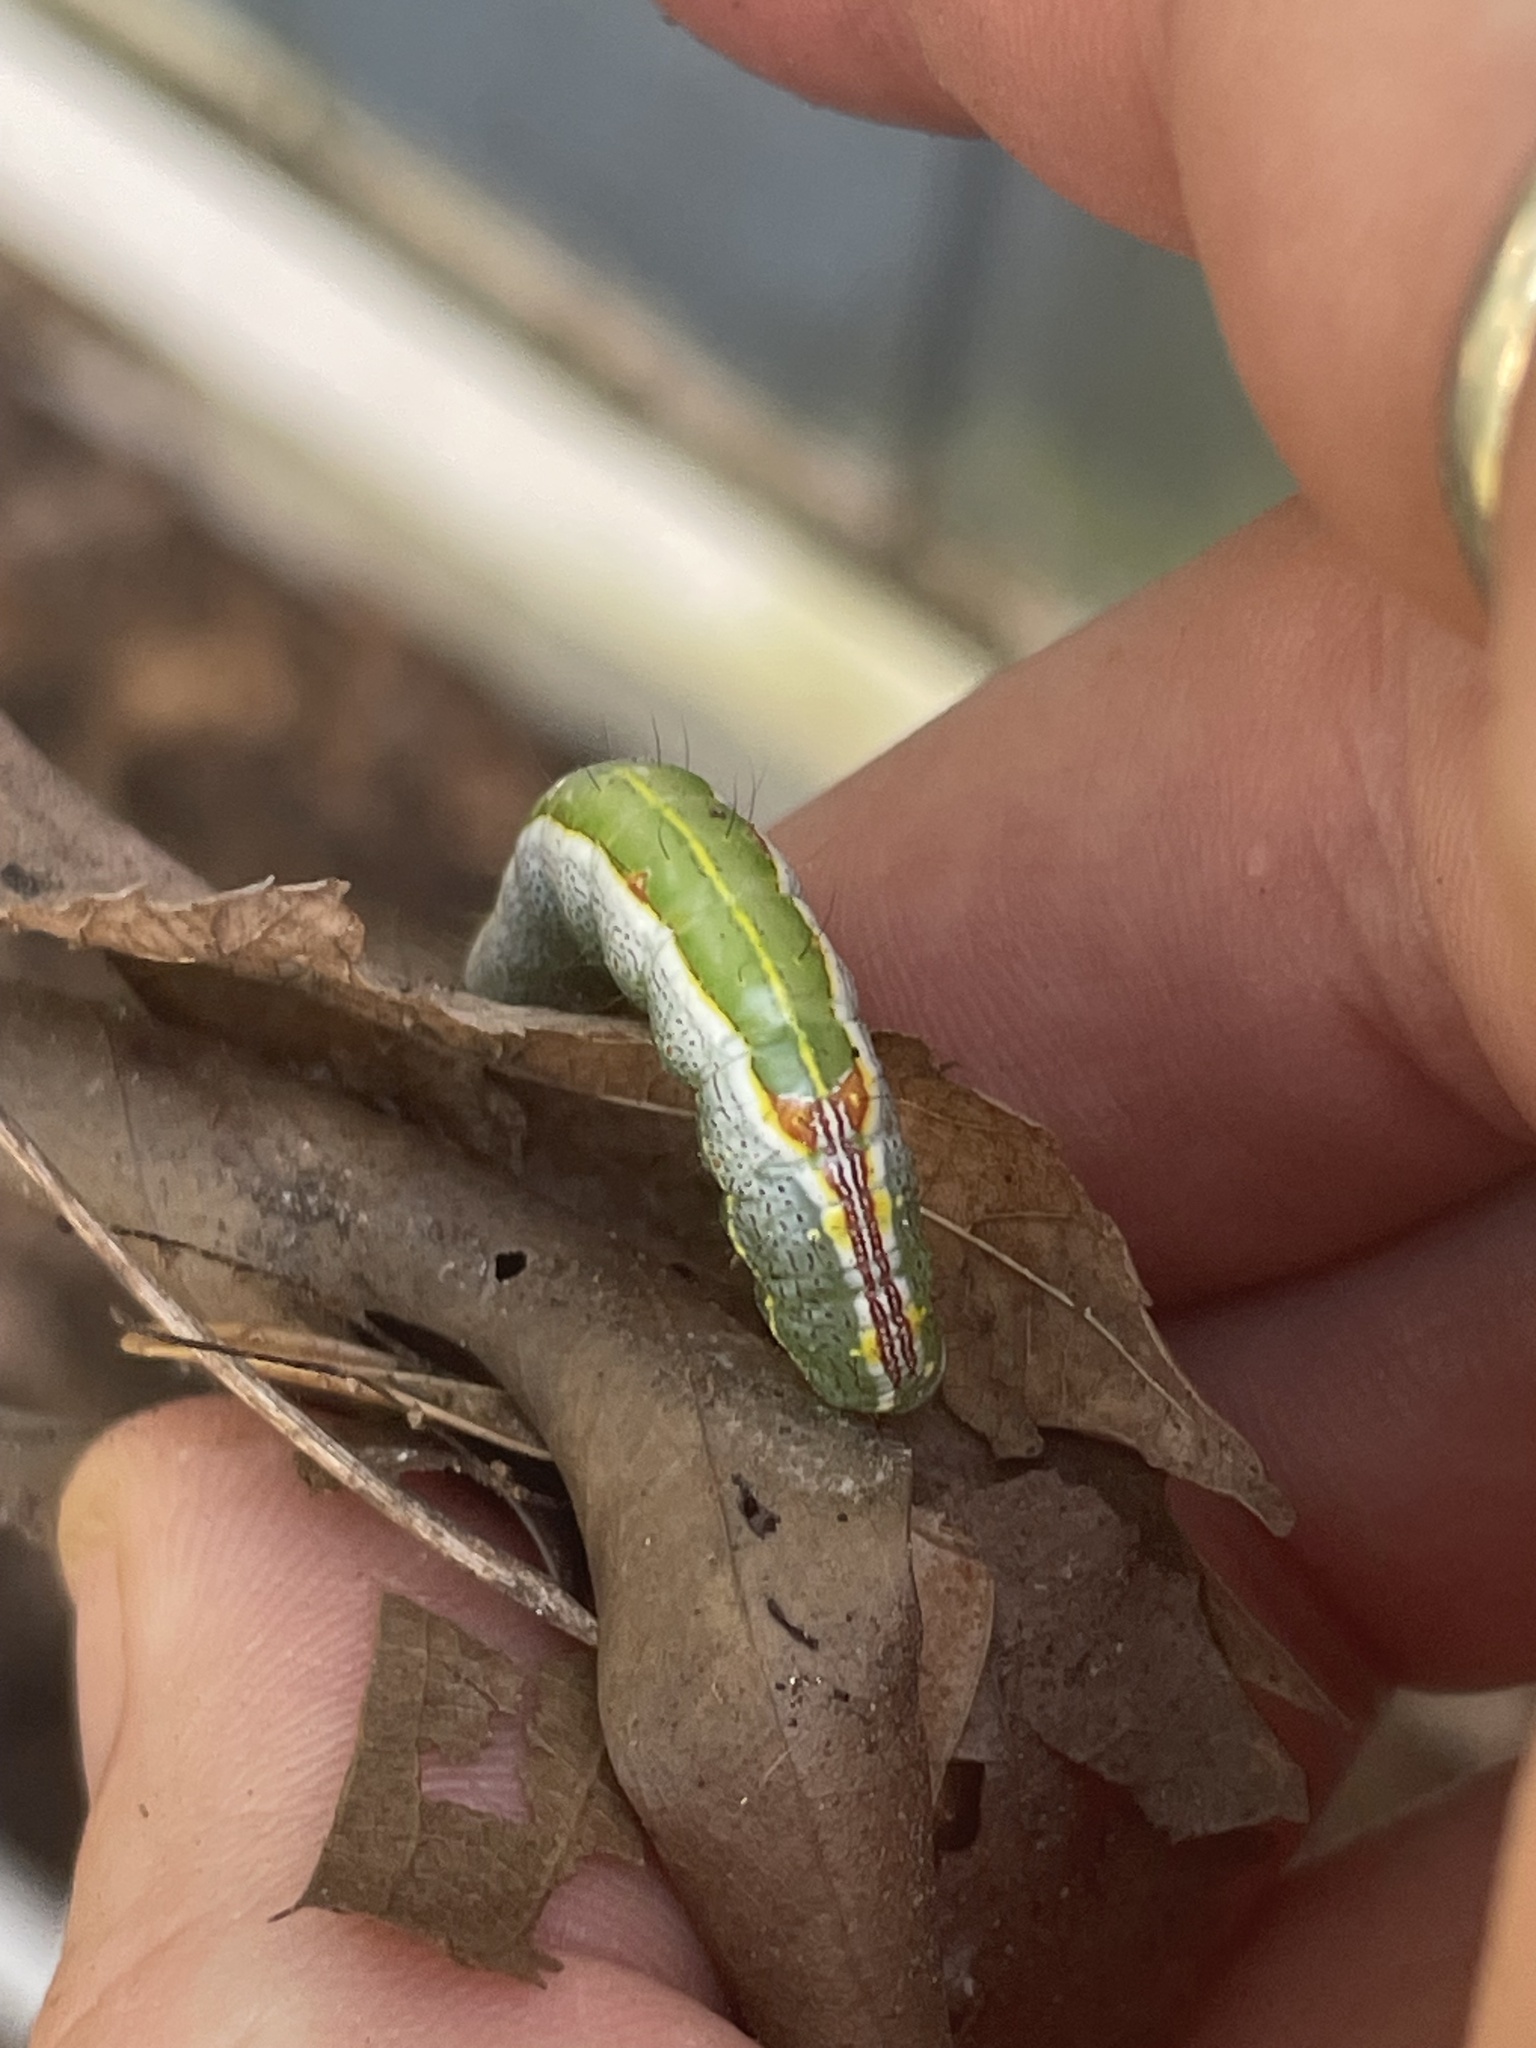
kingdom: Animalia
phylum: Arthropoda
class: Insecta
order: Lepidoptera
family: Notodontidae
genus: Lochmaeus
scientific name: Lochmaeus manteo
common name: Variable oakleaf caterpillar moth
